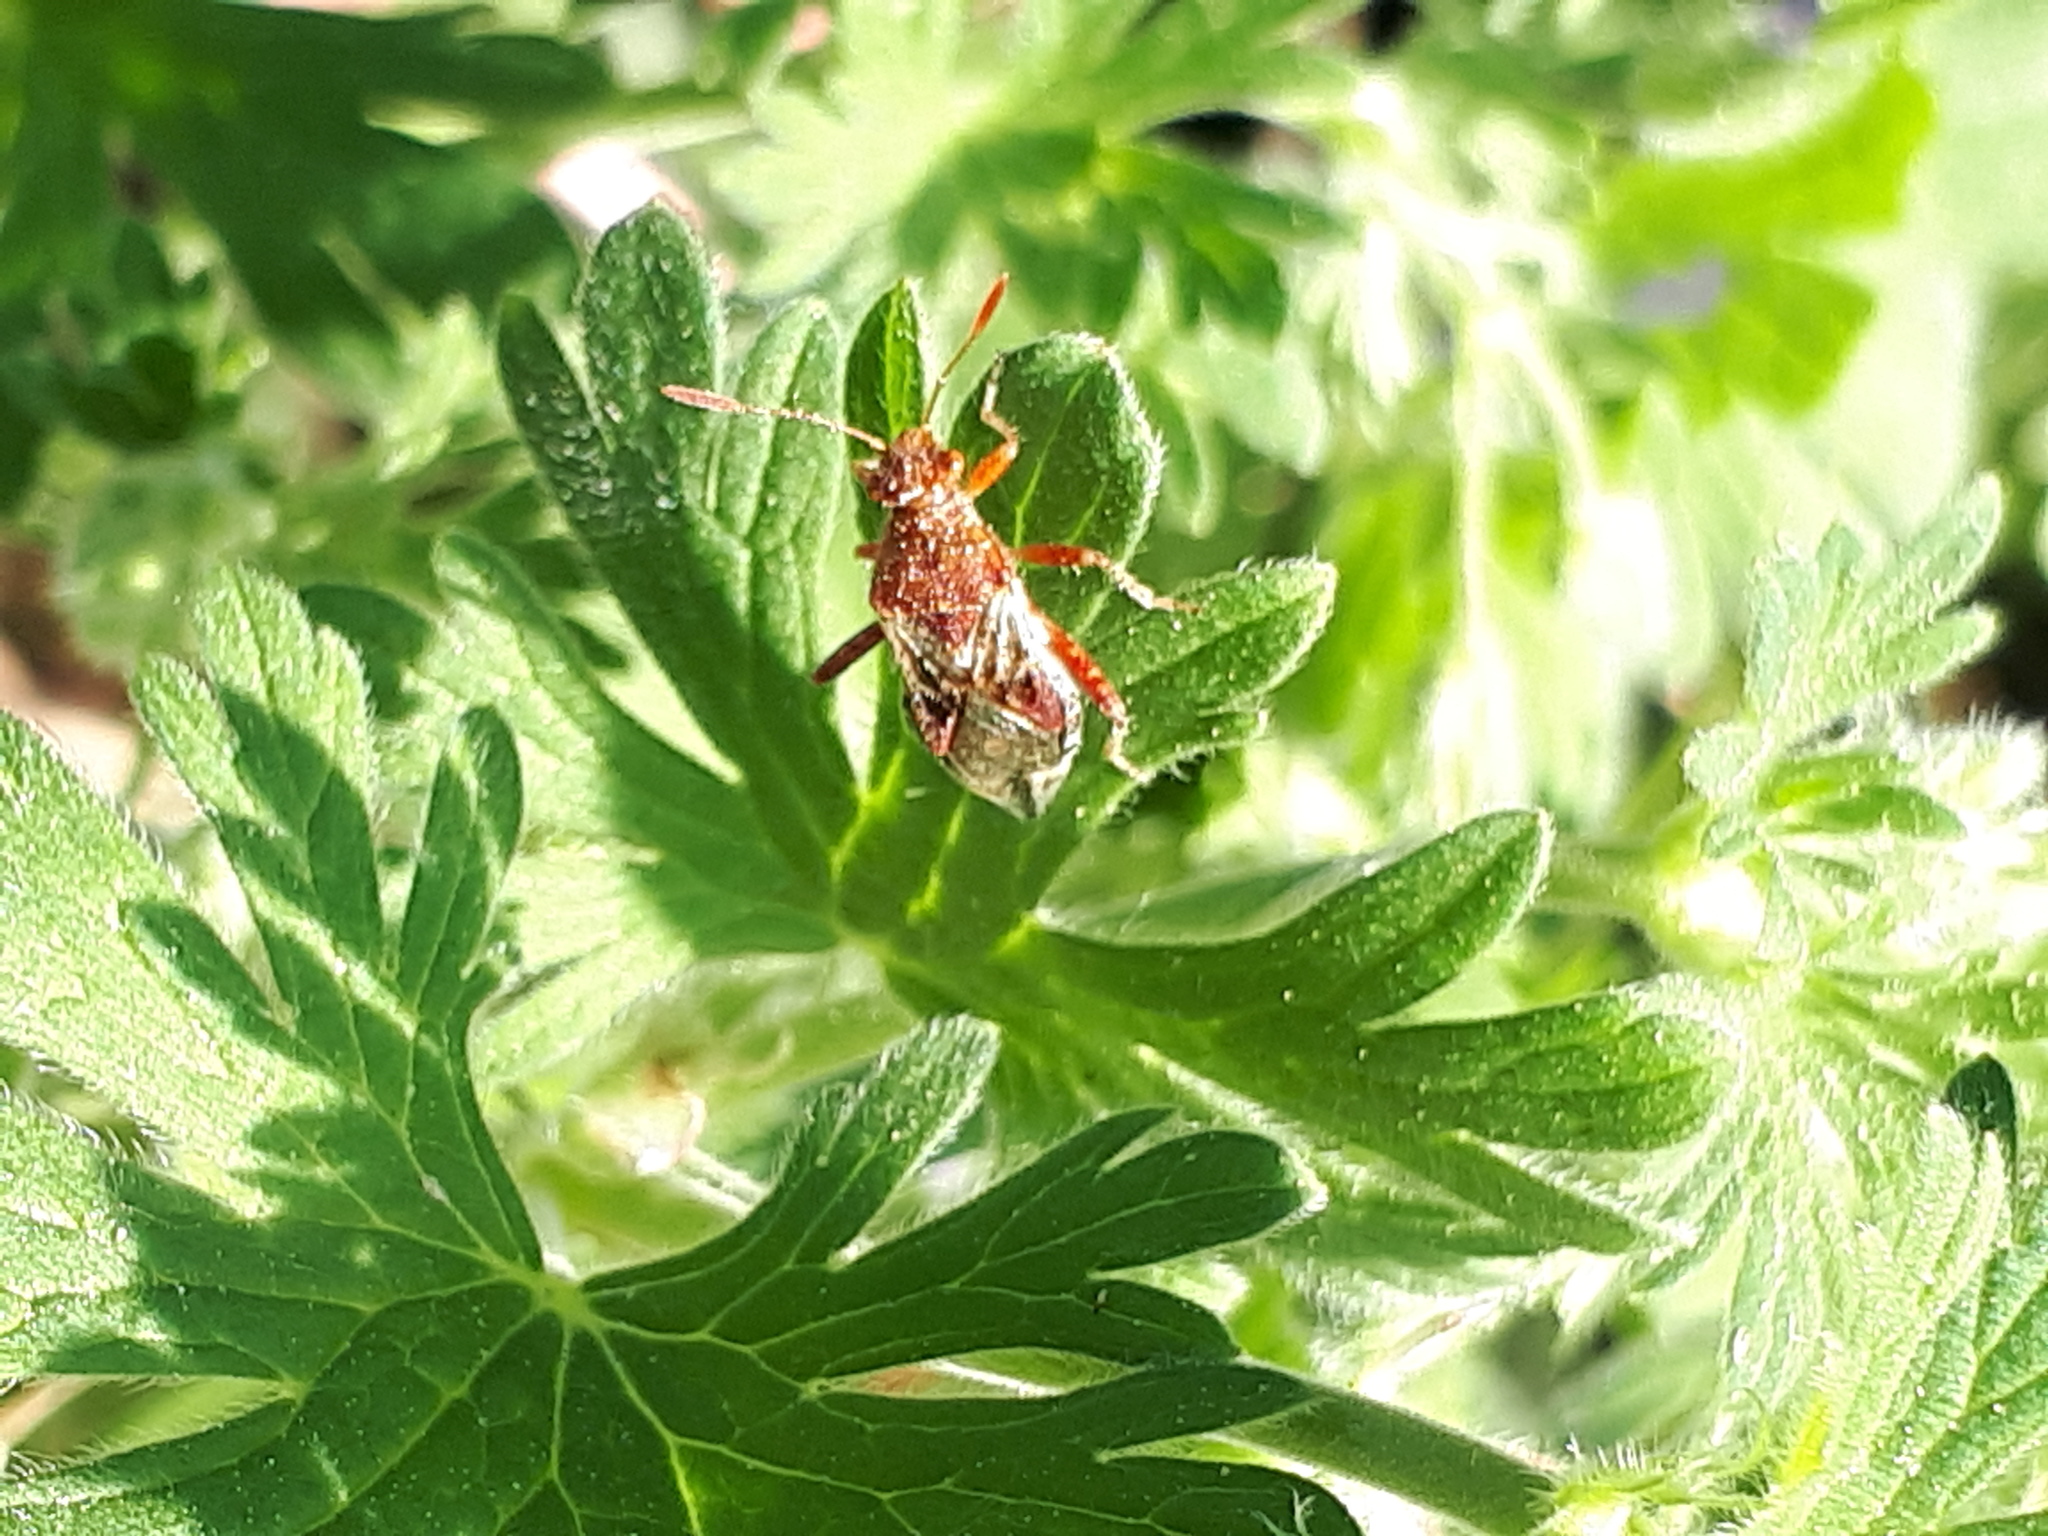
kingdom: Animalia
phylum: Arthropoda
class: Insecta
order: Hemiptera
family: Rhopalidae
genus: Rhopalus
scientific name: Rhopalus subrufus
